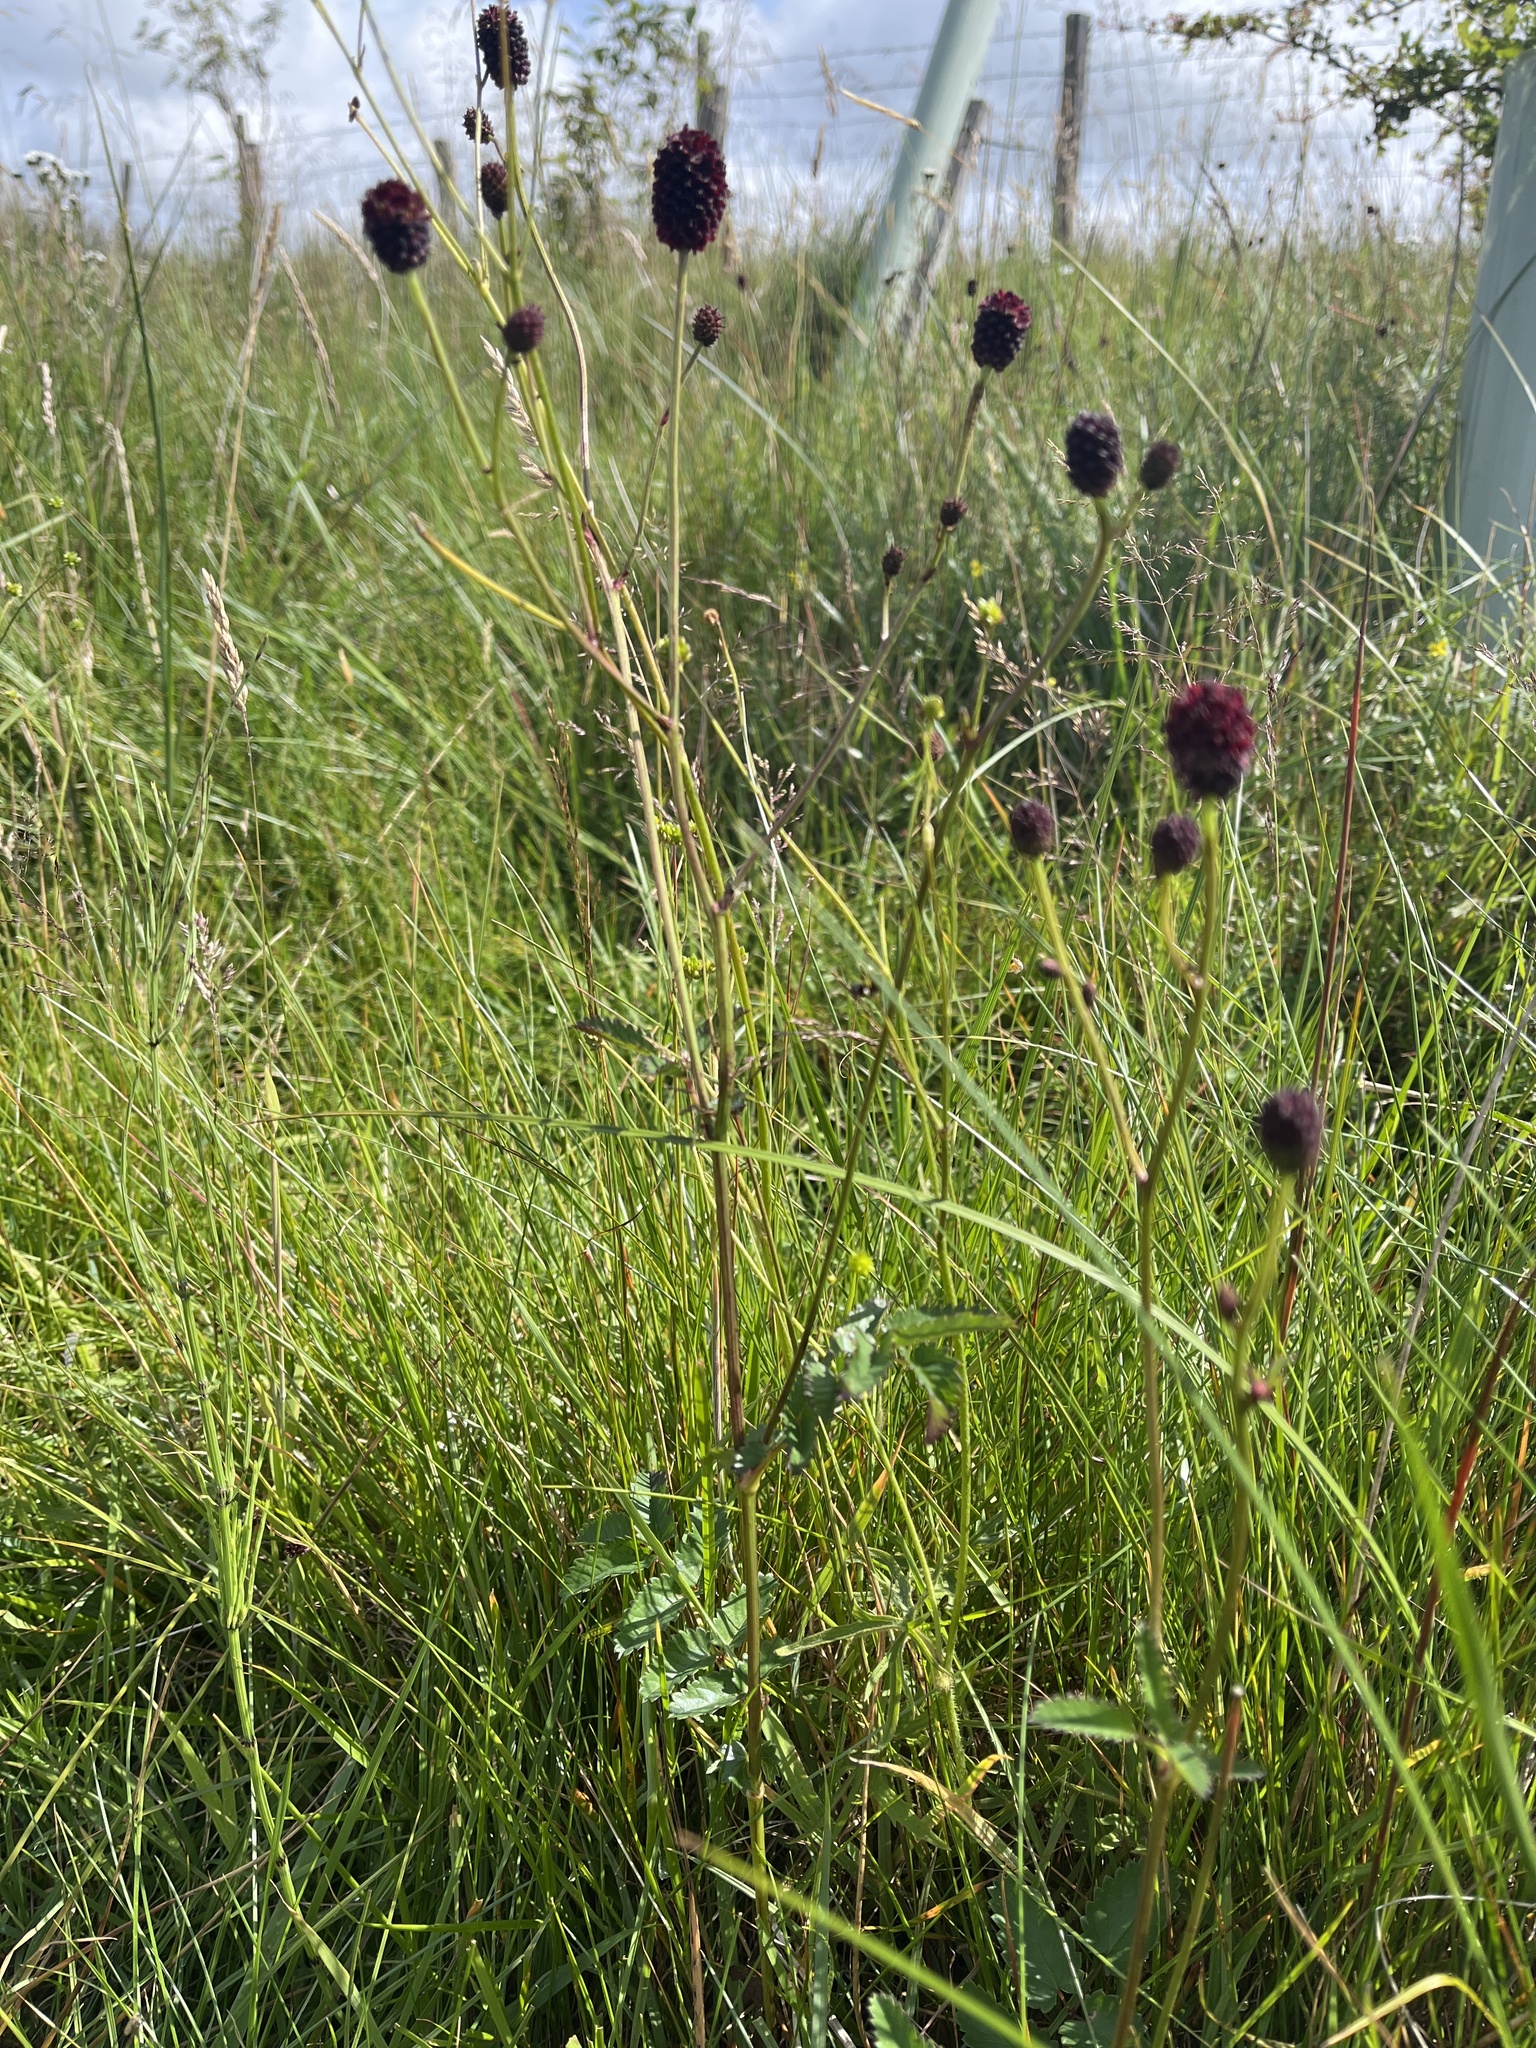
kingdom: Plantae
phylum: Tracheophyta
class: Magnoliopsida
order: Rosales
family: Rosaceae
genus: Sanguisorba
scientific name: Sanguisorba officinalis
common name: Great burnet
